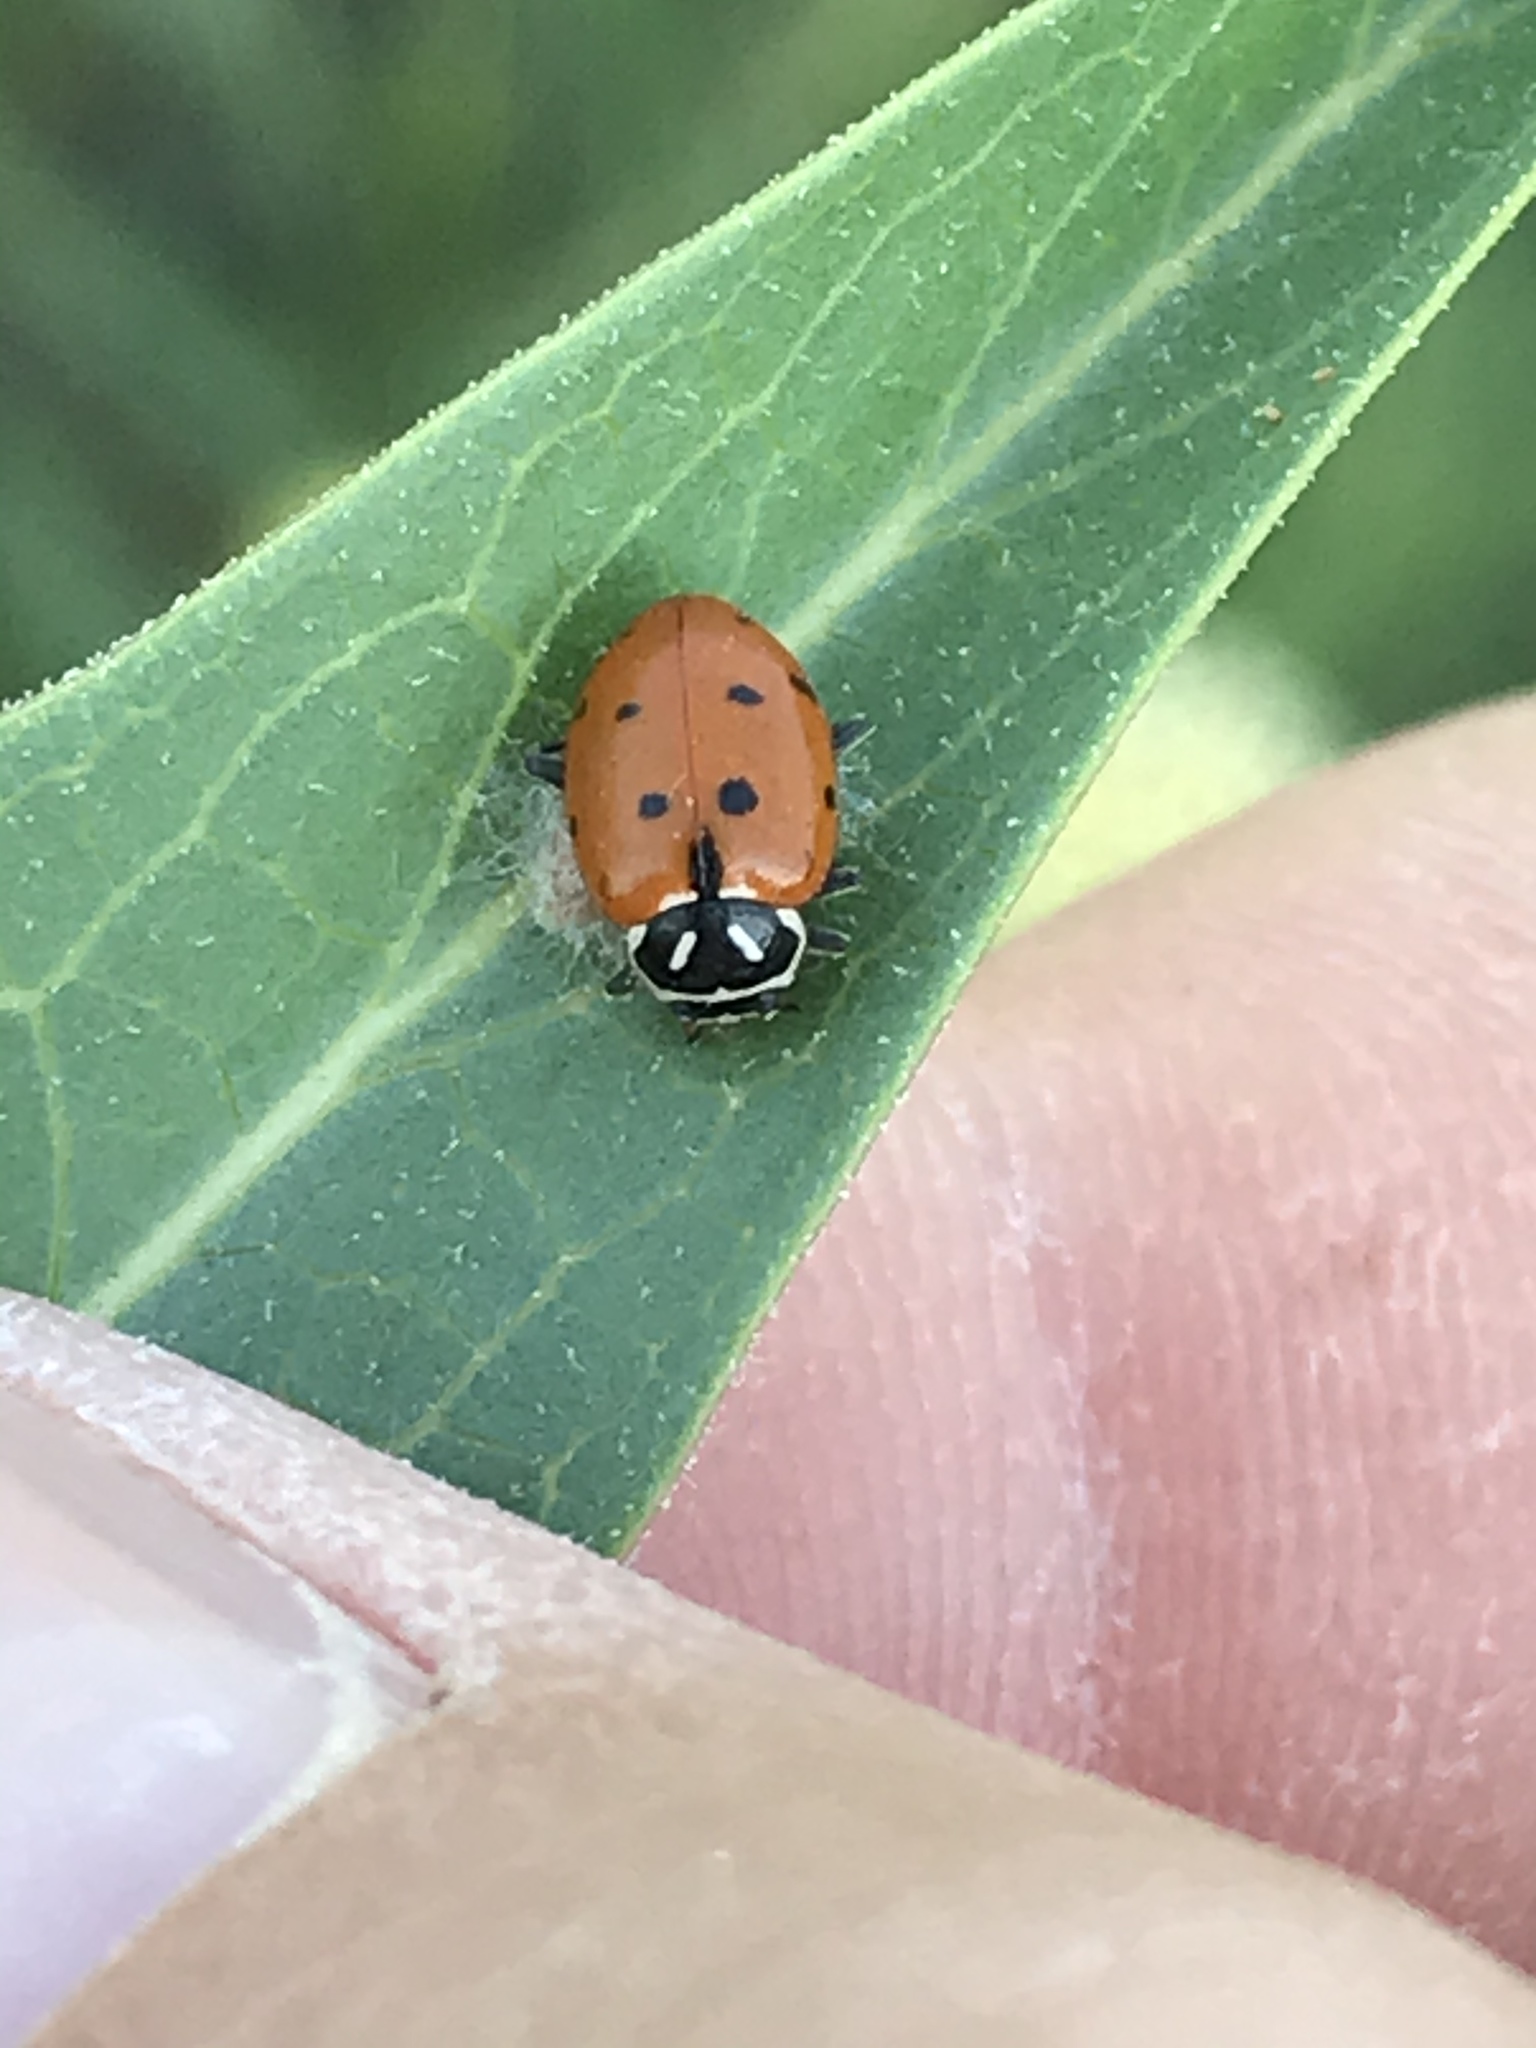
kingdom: Viruses
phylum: Pisuviricota
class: Pisoniviricetes
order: Picornavirales
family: Iflaviridae
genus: Iflavirus
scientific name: Iflavirus dinococcinellae
